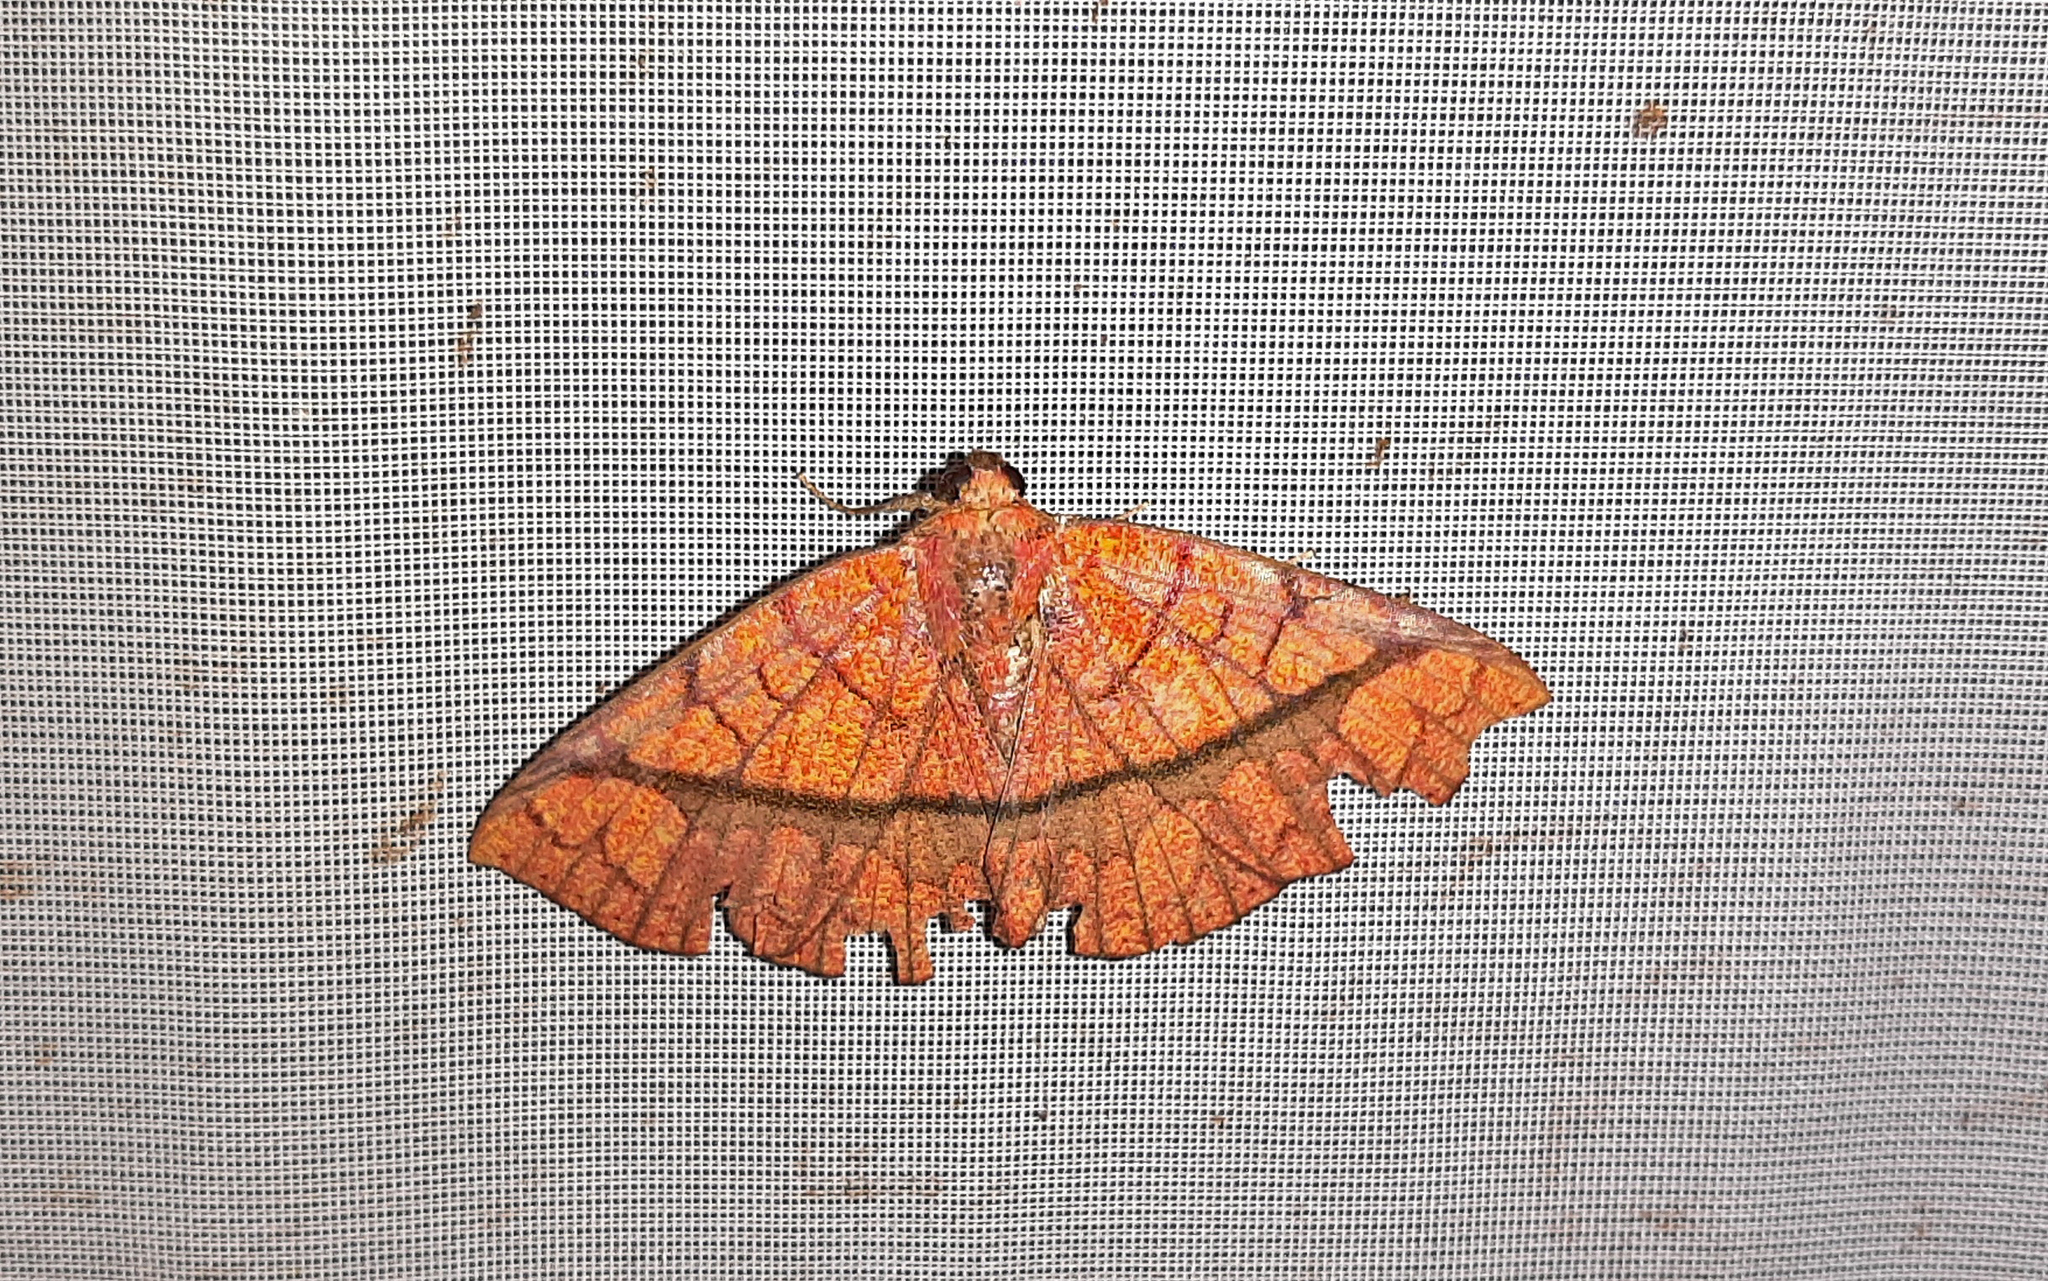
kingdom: Animalia
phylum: Arthropoda
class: Insecta
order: Lepidoptera
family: Erebidae
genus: Antiblemma
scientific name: Antiblemma subrutilans
